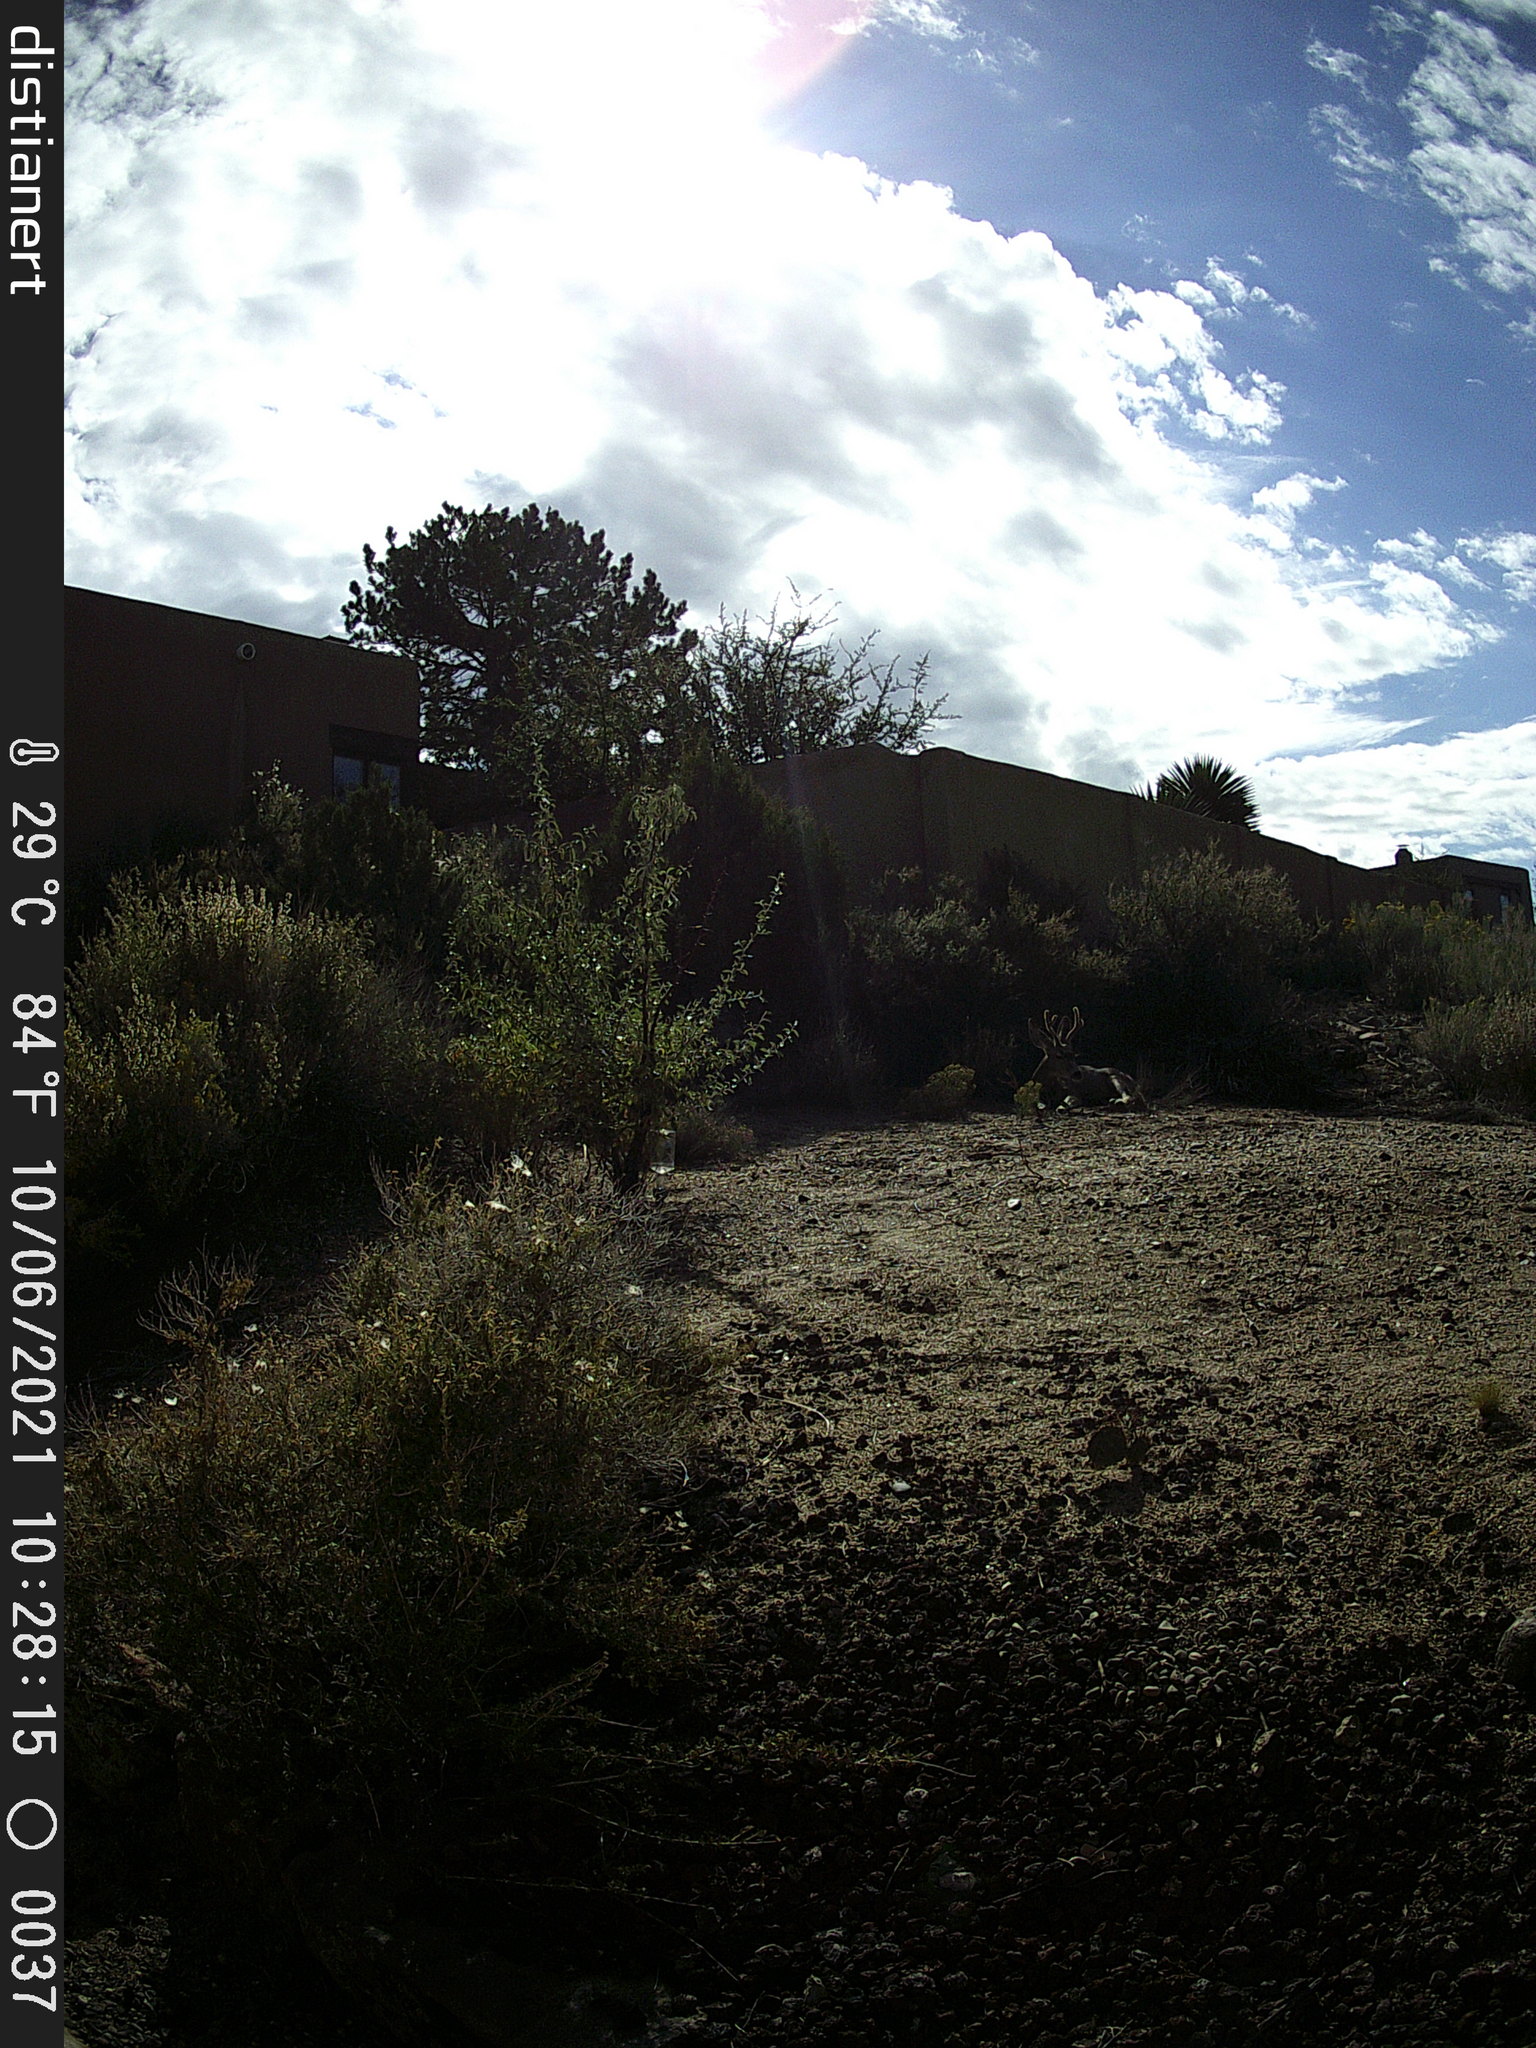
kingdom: Animalia
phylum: Chordata
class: Mammalia
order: Artiodactyla
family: Cervidae
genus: Odocoileus
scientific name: Odocoileus hemionus
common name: Mule deer
